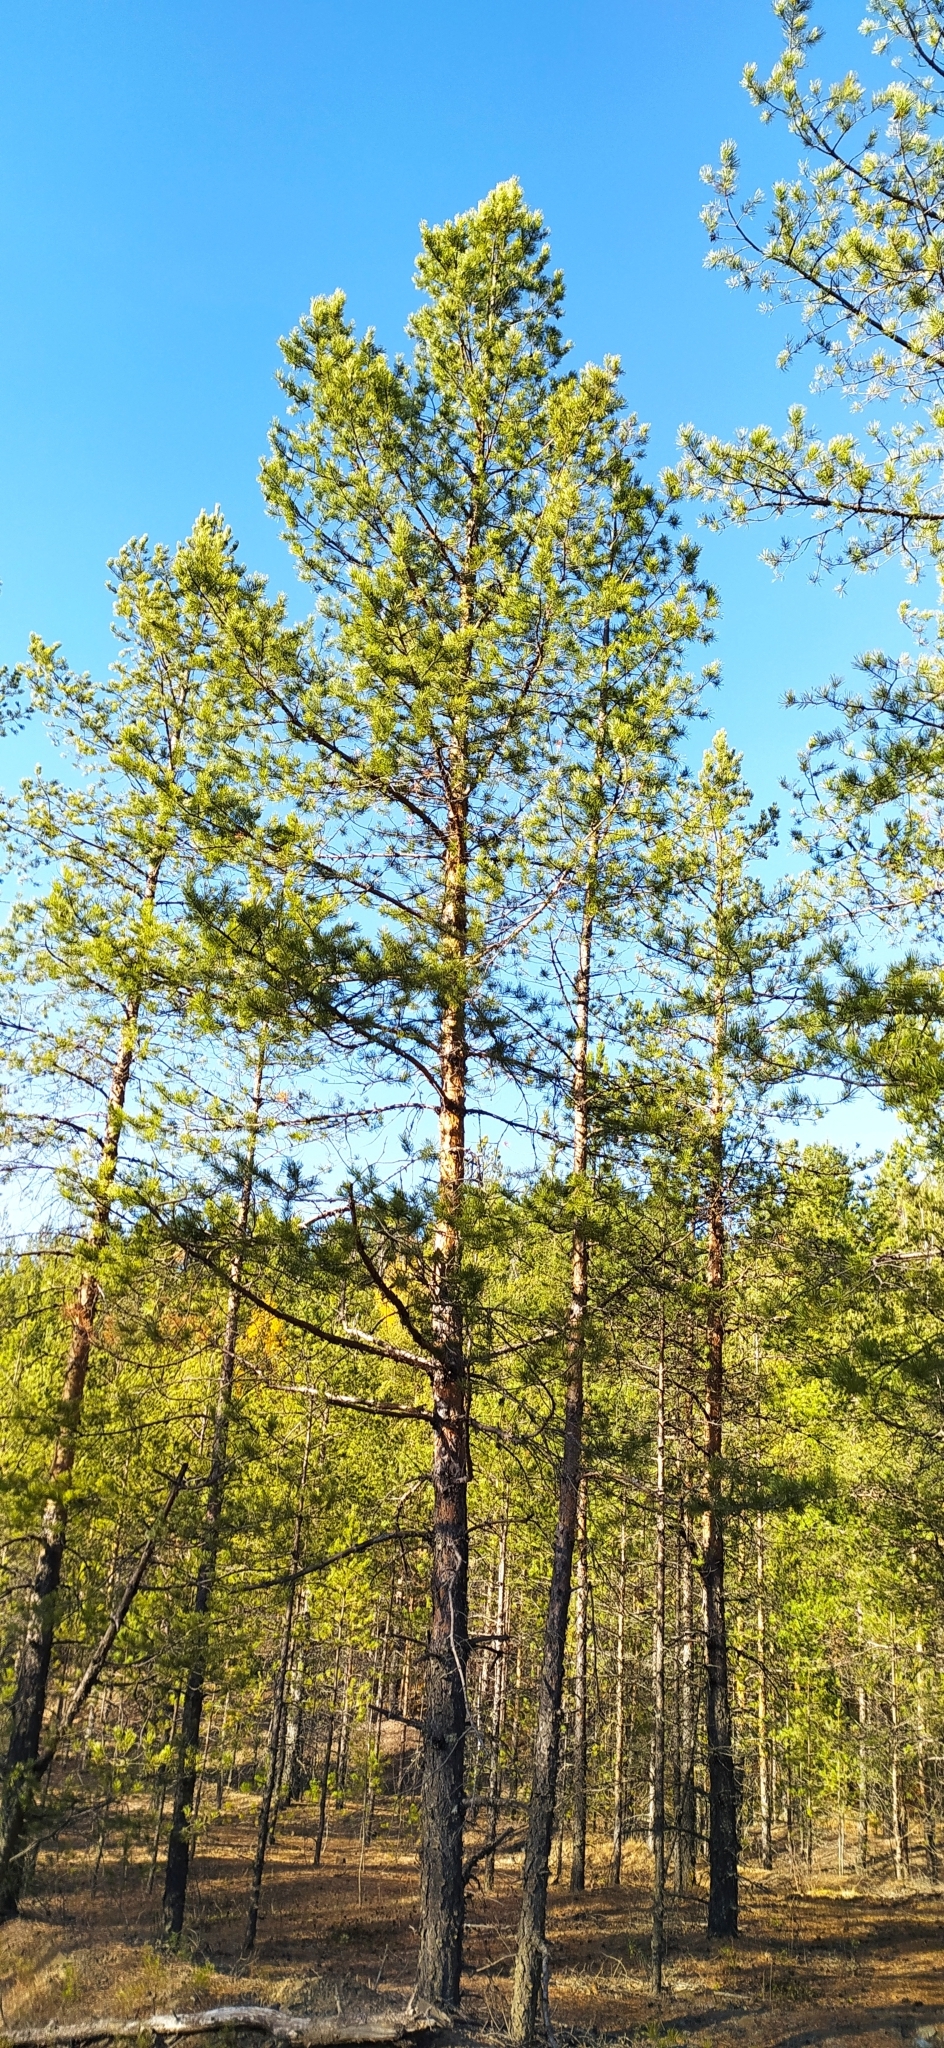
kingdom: Plantae
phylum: Tracheophyta
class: Pinopsida
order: Pinales
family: Pinaceae
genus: Pinus
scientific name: Pinus sylvestris
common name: Scots pine
